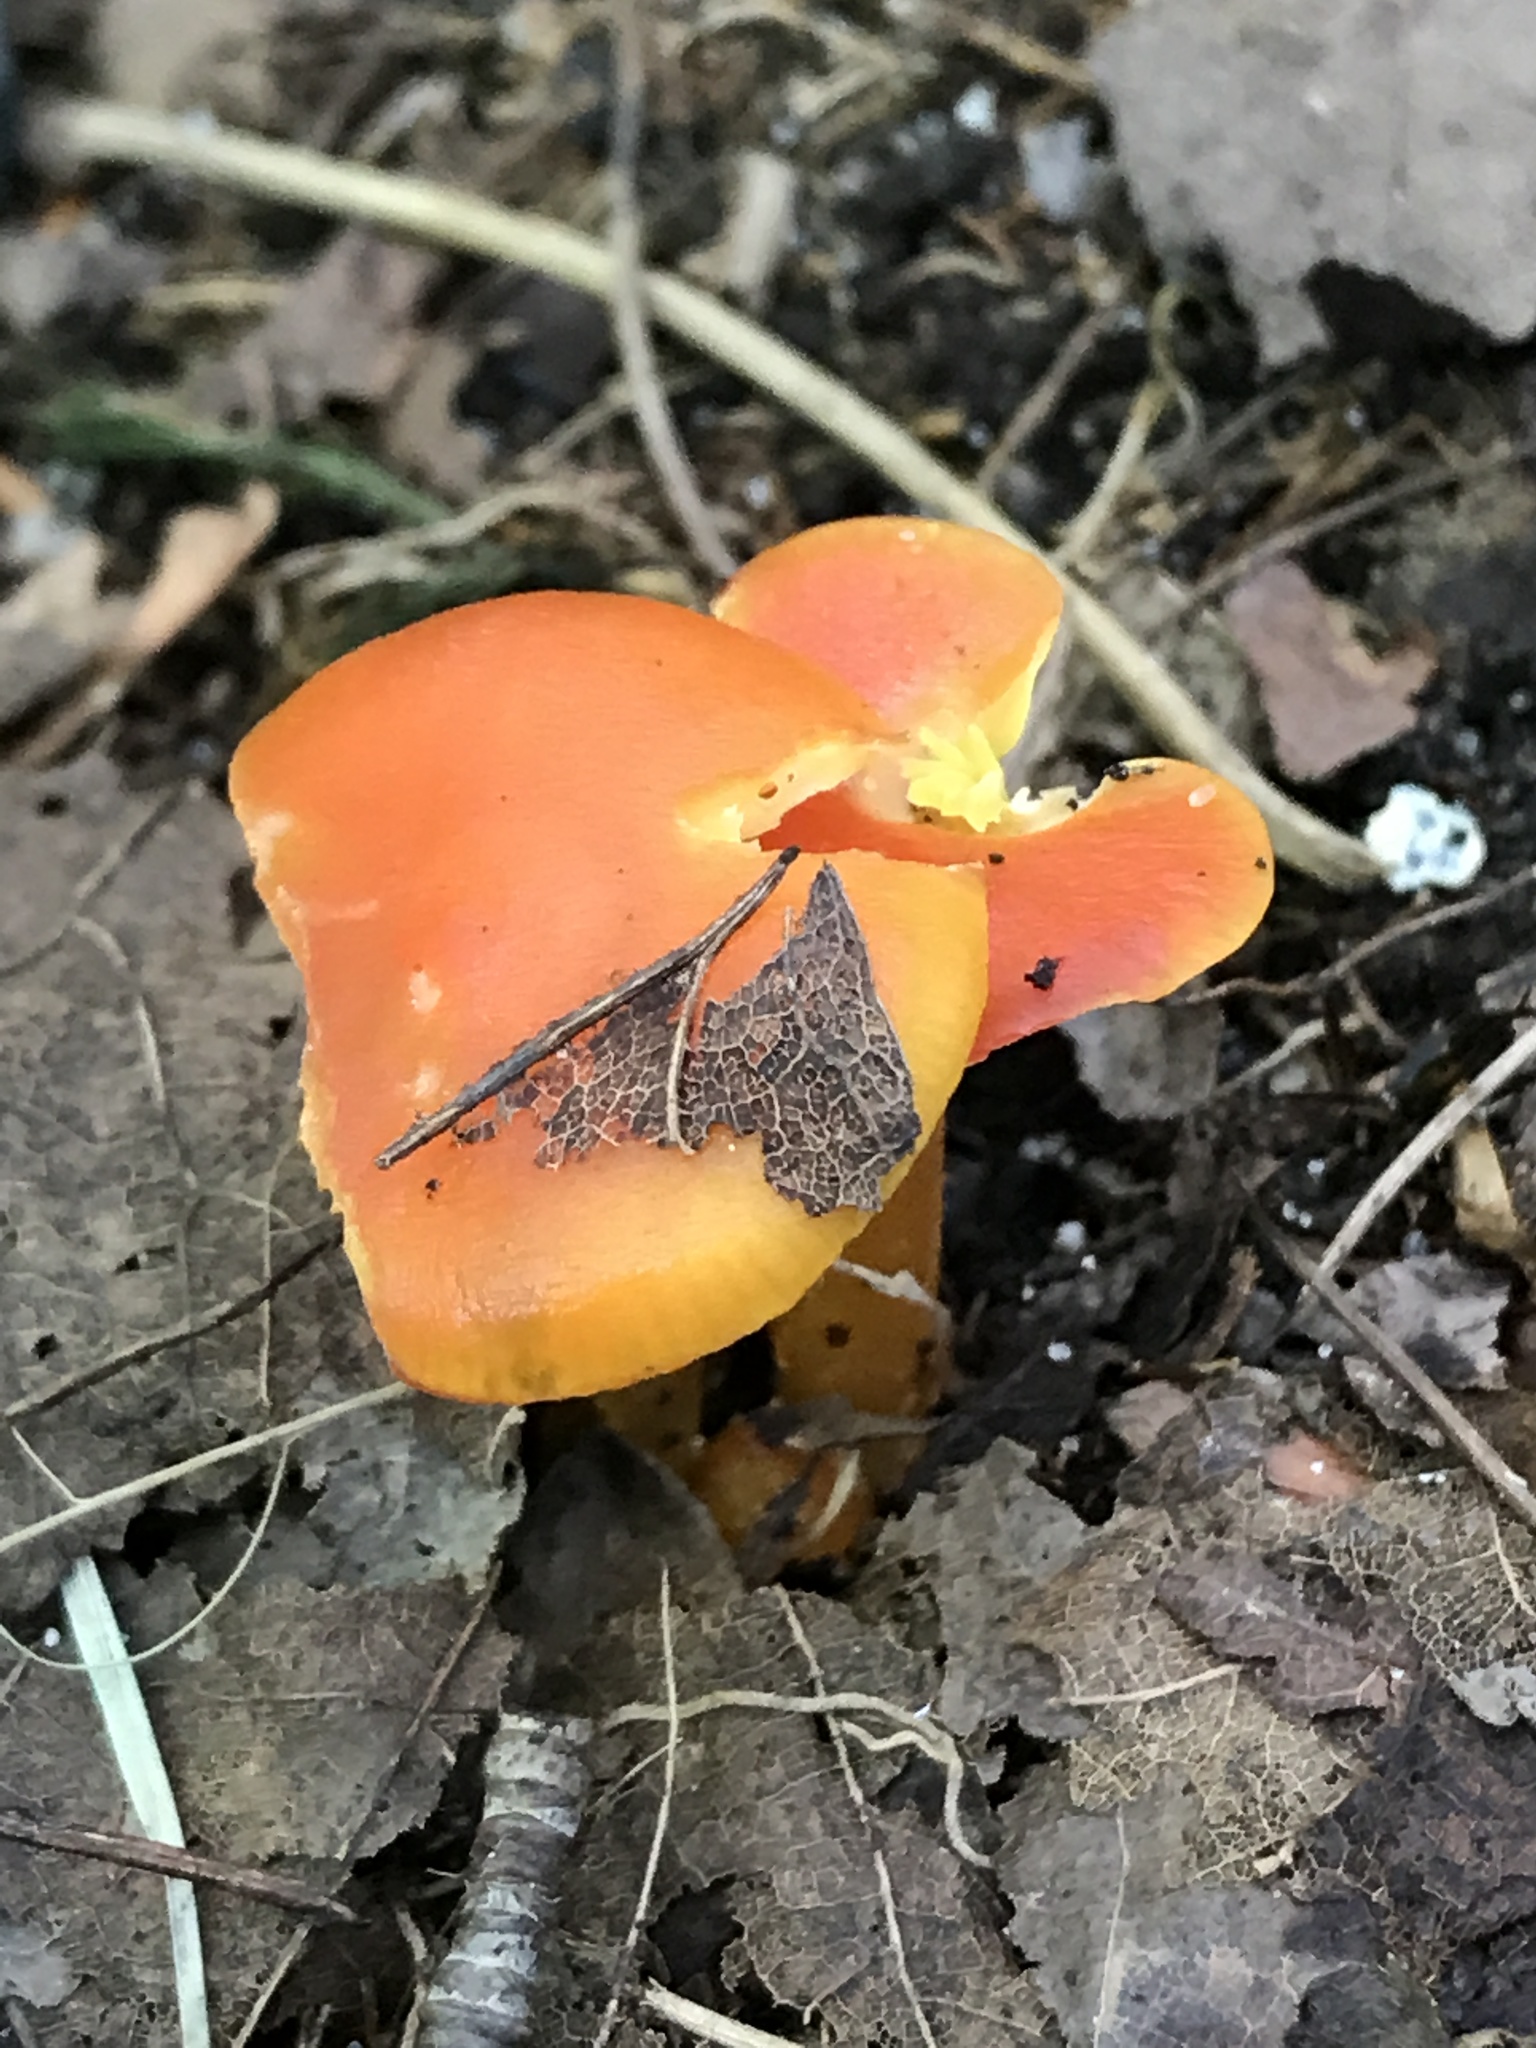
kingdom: Fungi
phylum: Basidiomycota
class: Agaricomycetes
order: Agaricales
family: Hygrophoraceae
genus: Hygrocybe
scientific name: Hygrocybe flavescens
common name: Golden waxy cap
